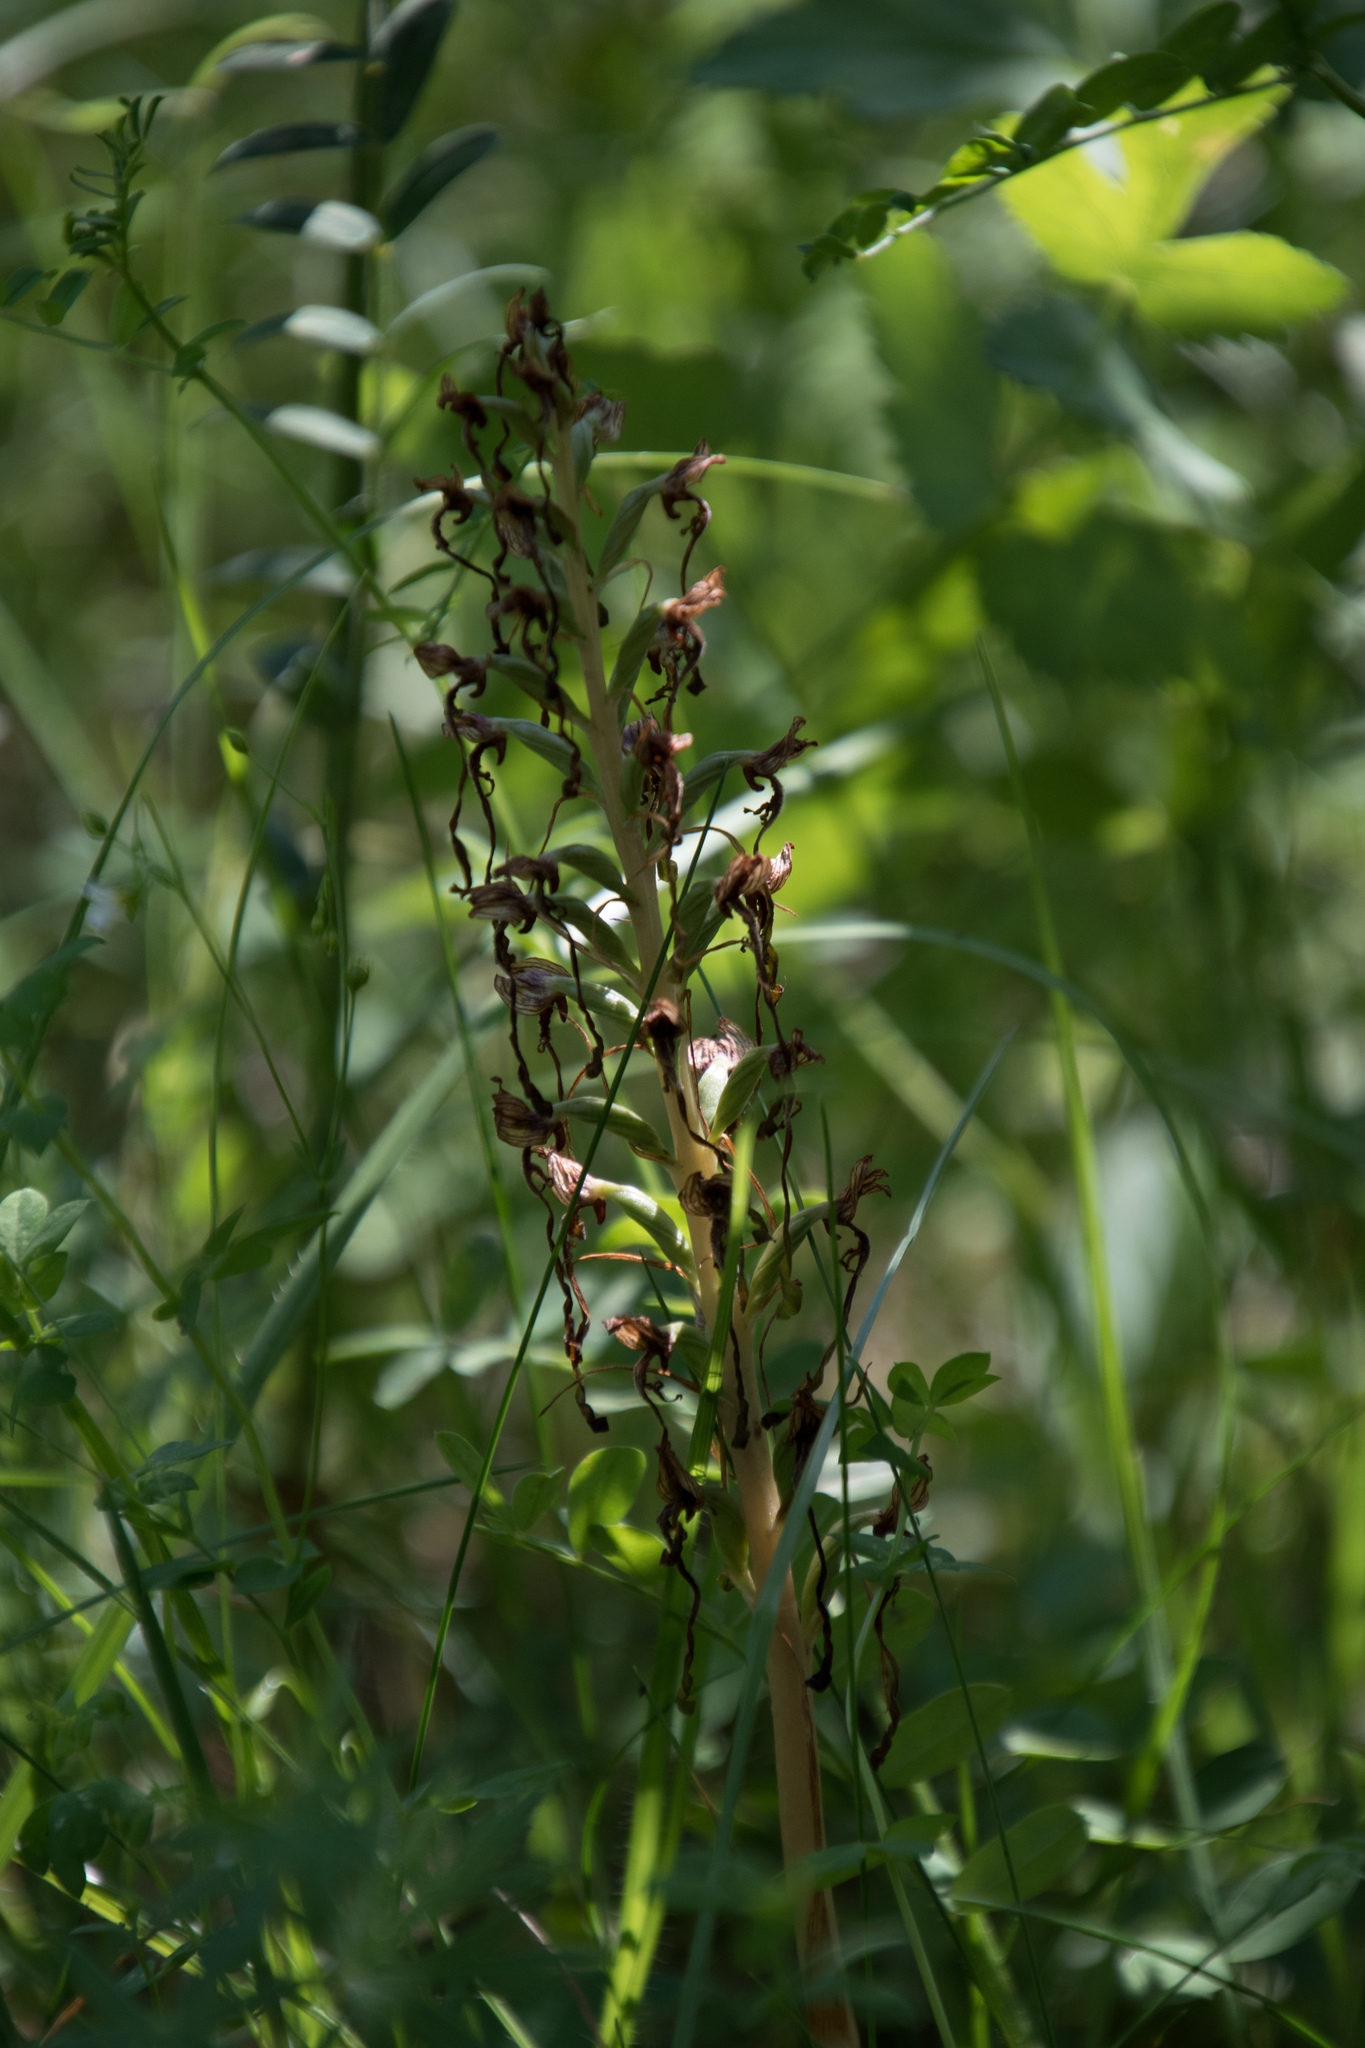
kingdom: Plantae
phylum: Tracheophyta
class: Liliopsida
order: Asparagales
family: Orchidaceae
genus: Himantoglossum
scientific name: Himantoglossum hircinum
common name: Lizard orchid
